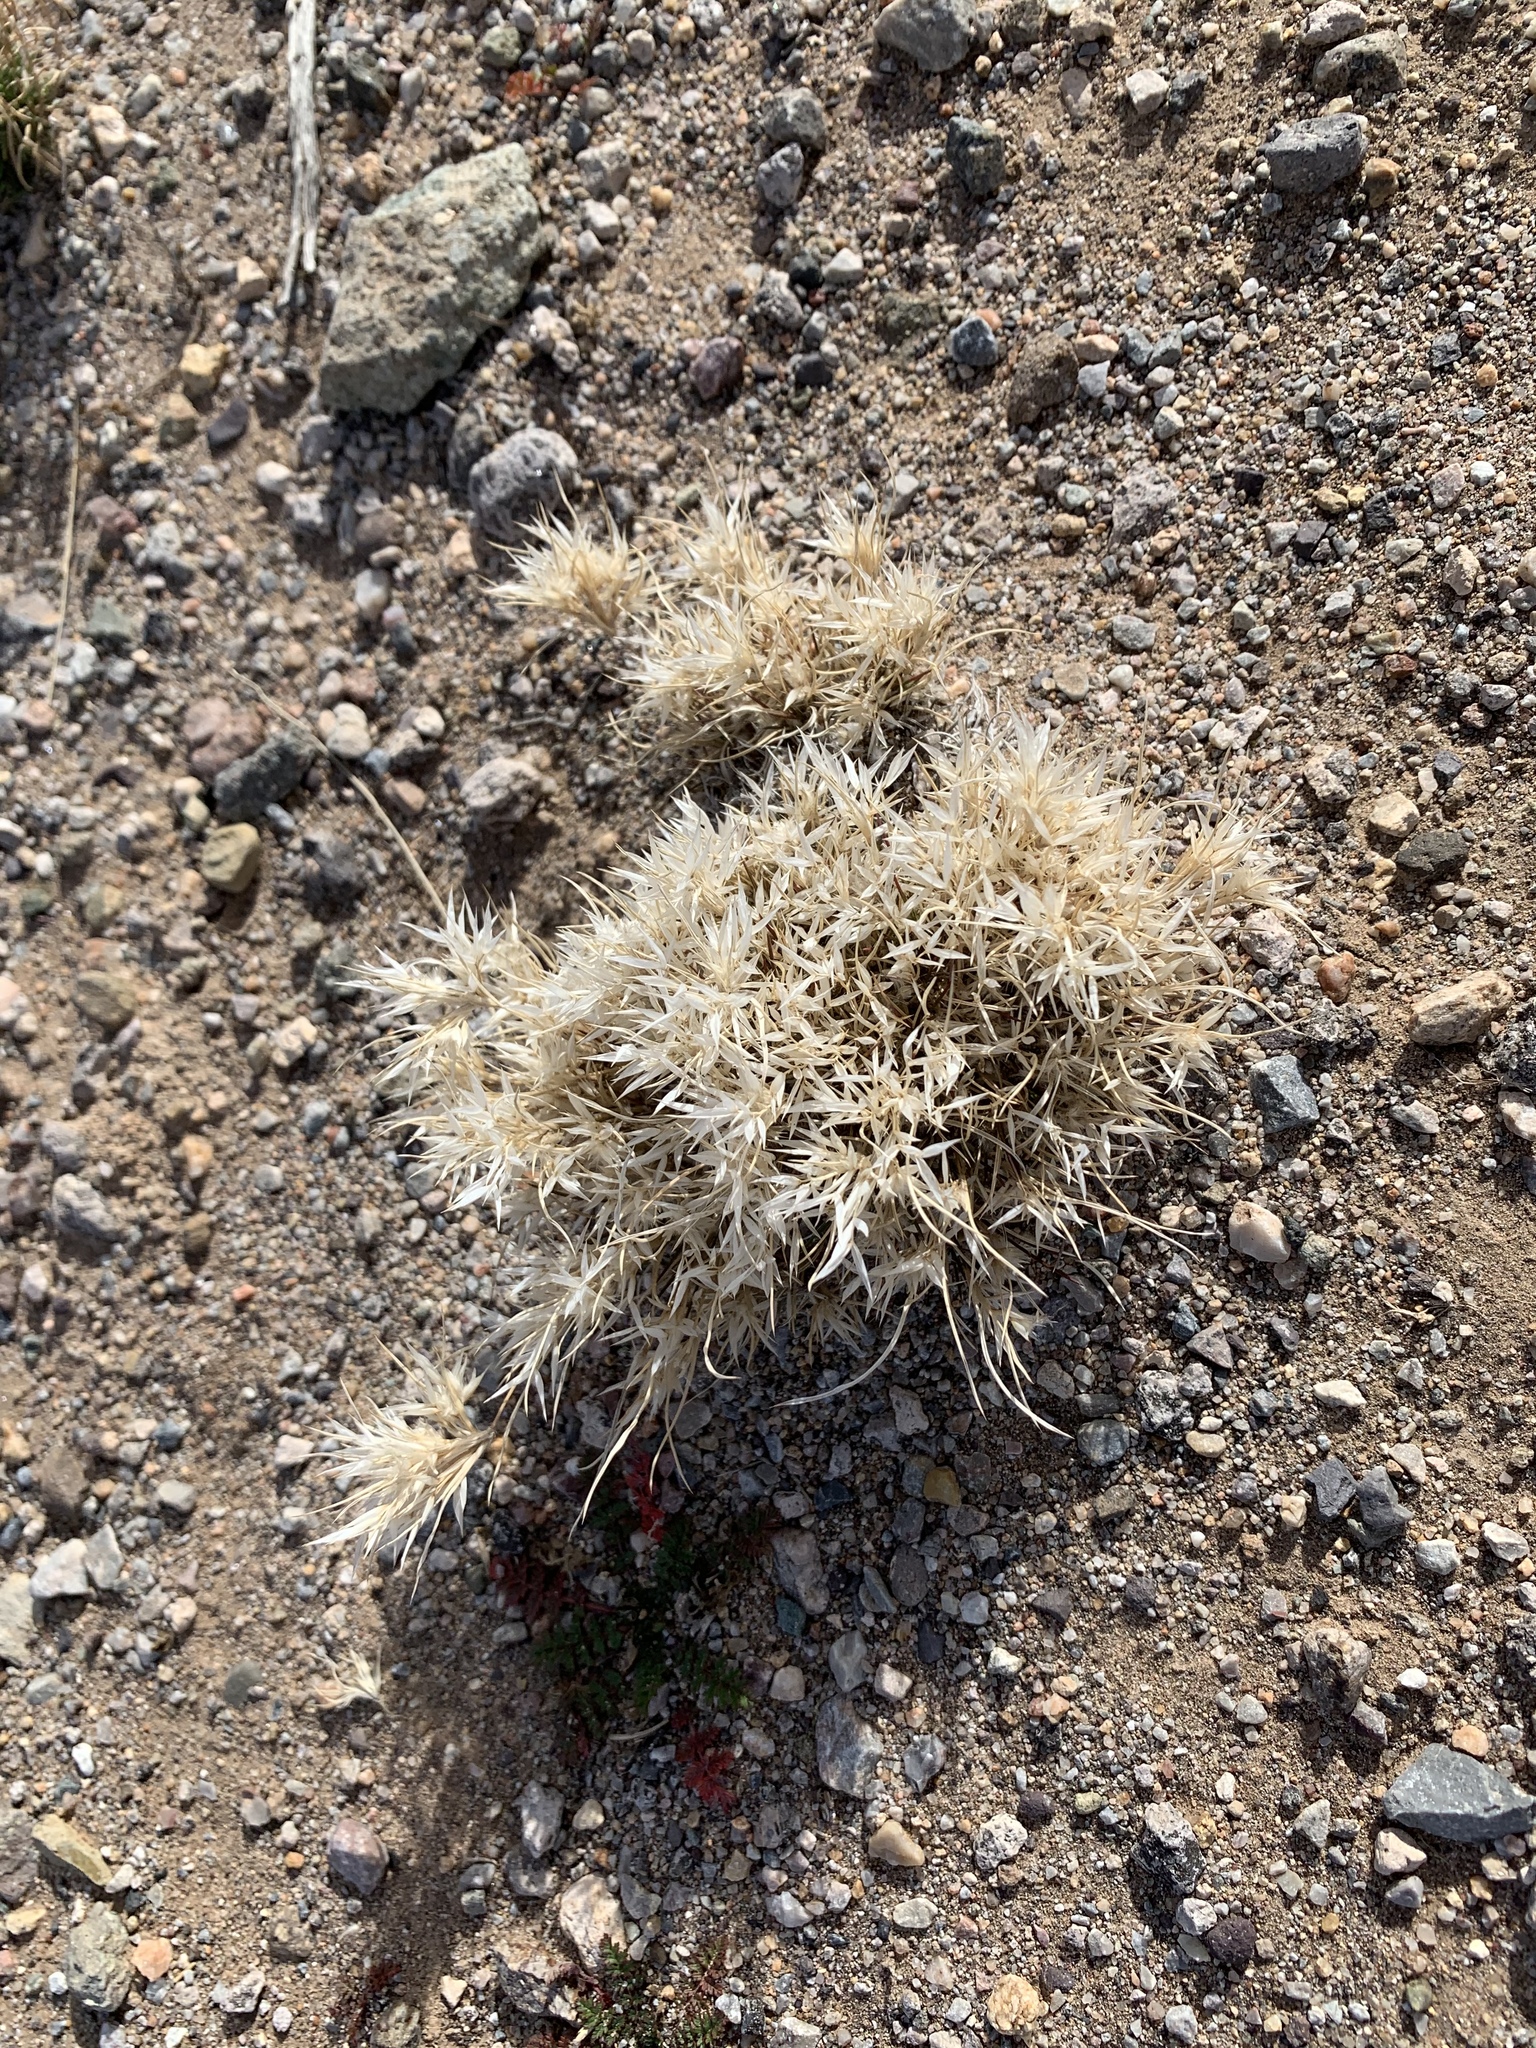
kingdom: Plantae
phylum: Tracheophyta
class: Liliopsida
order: Poales
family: Poaceae
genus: Dasyochloa
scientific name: Dasyochloa pulchella
